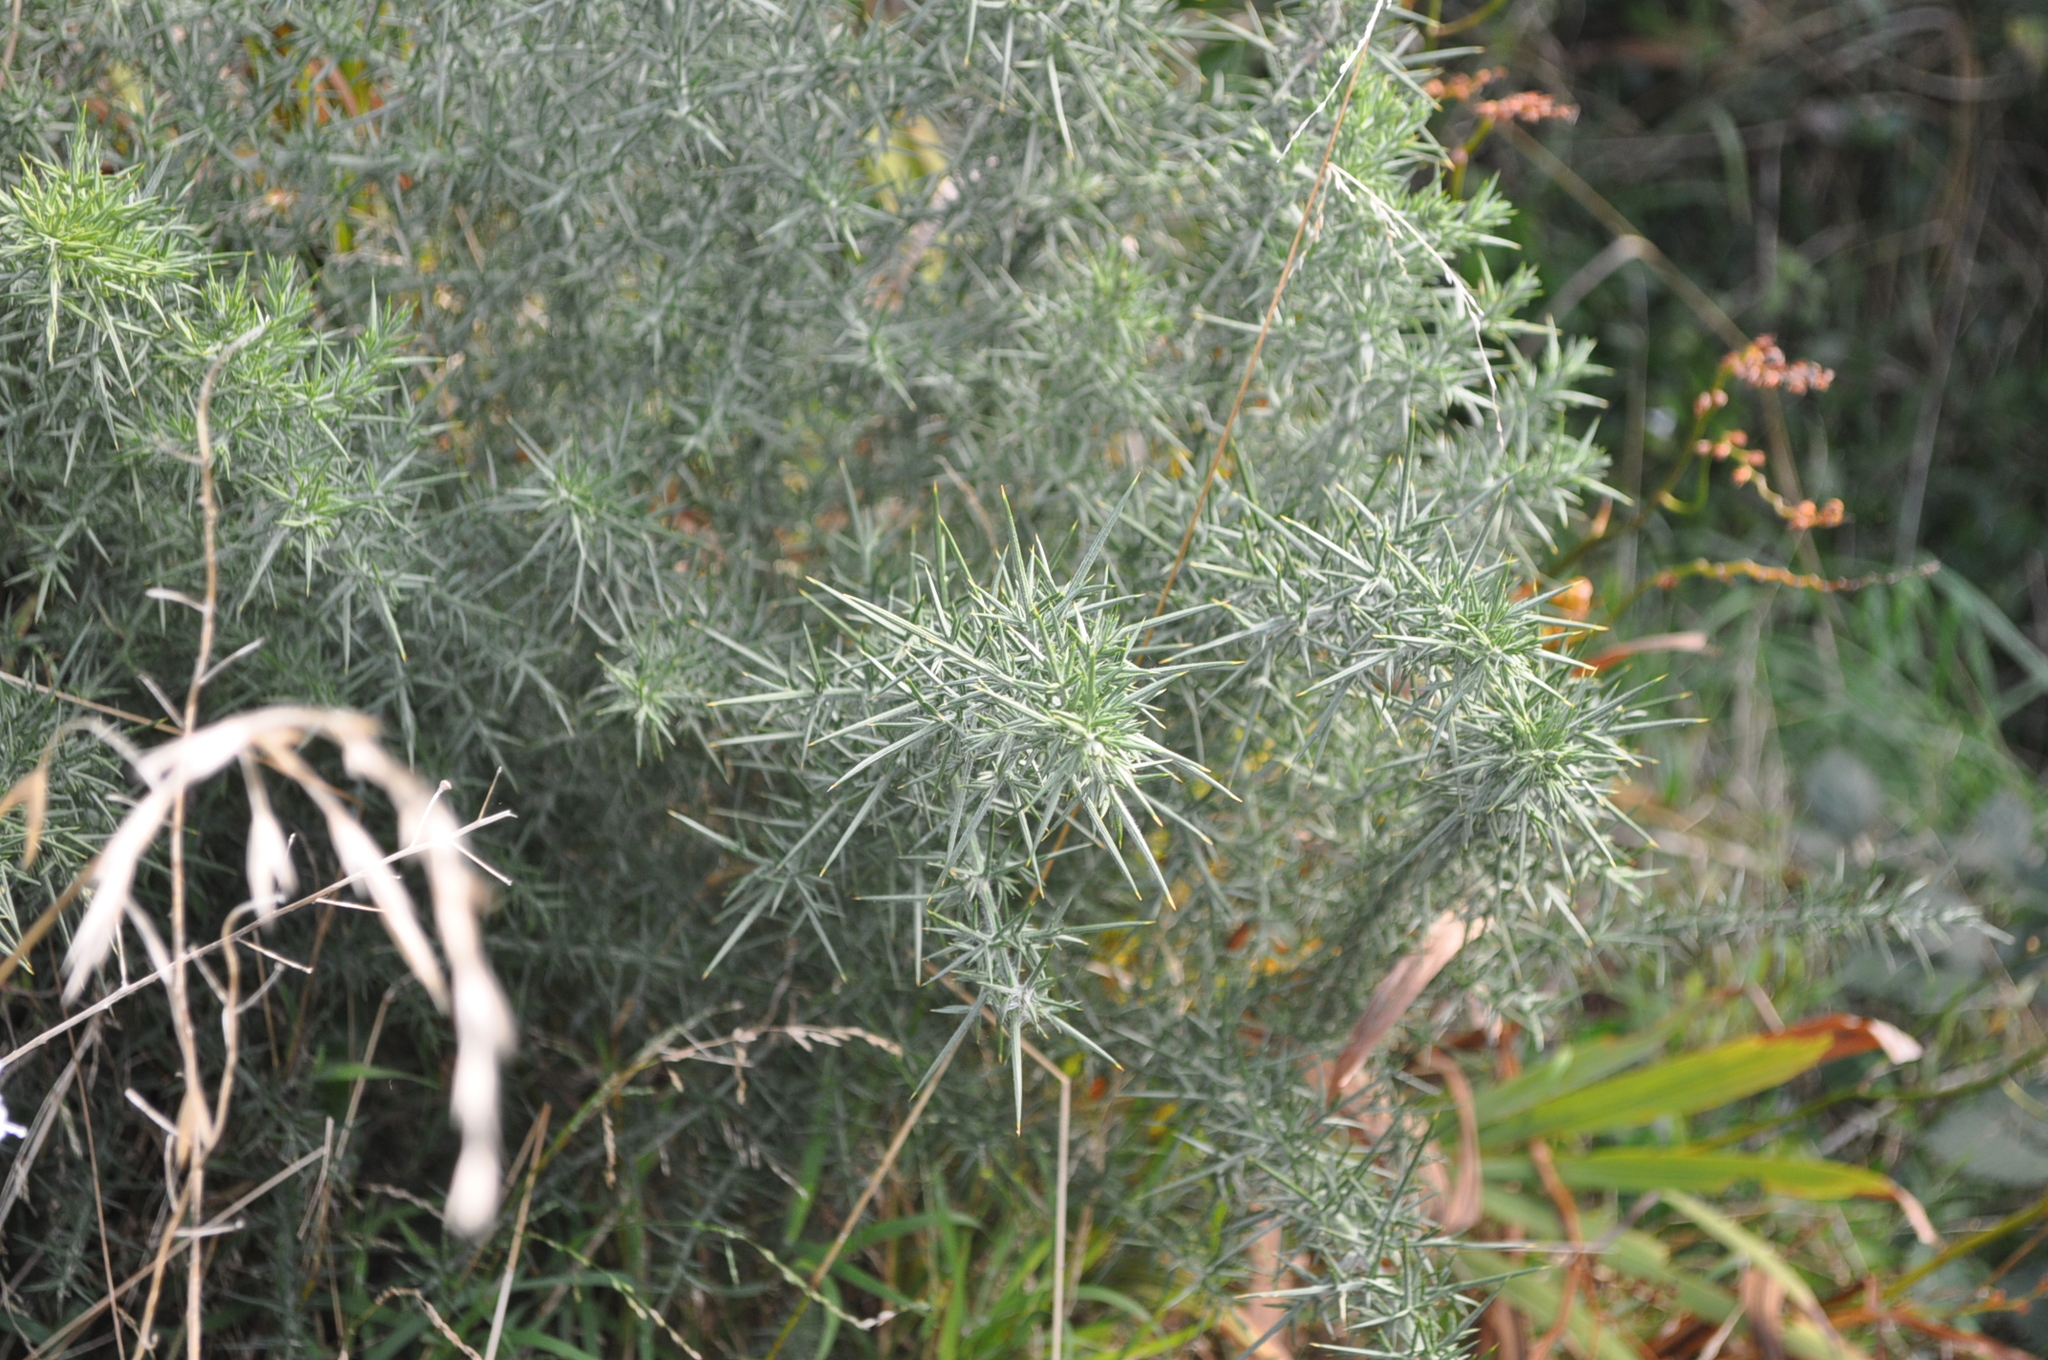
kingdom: Plantae
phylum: Tracheophyta
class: Magnoliopsida
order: Fabales
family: Fabaceae
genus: Ulex
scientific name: Ulex europaeus
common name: Common gorse
